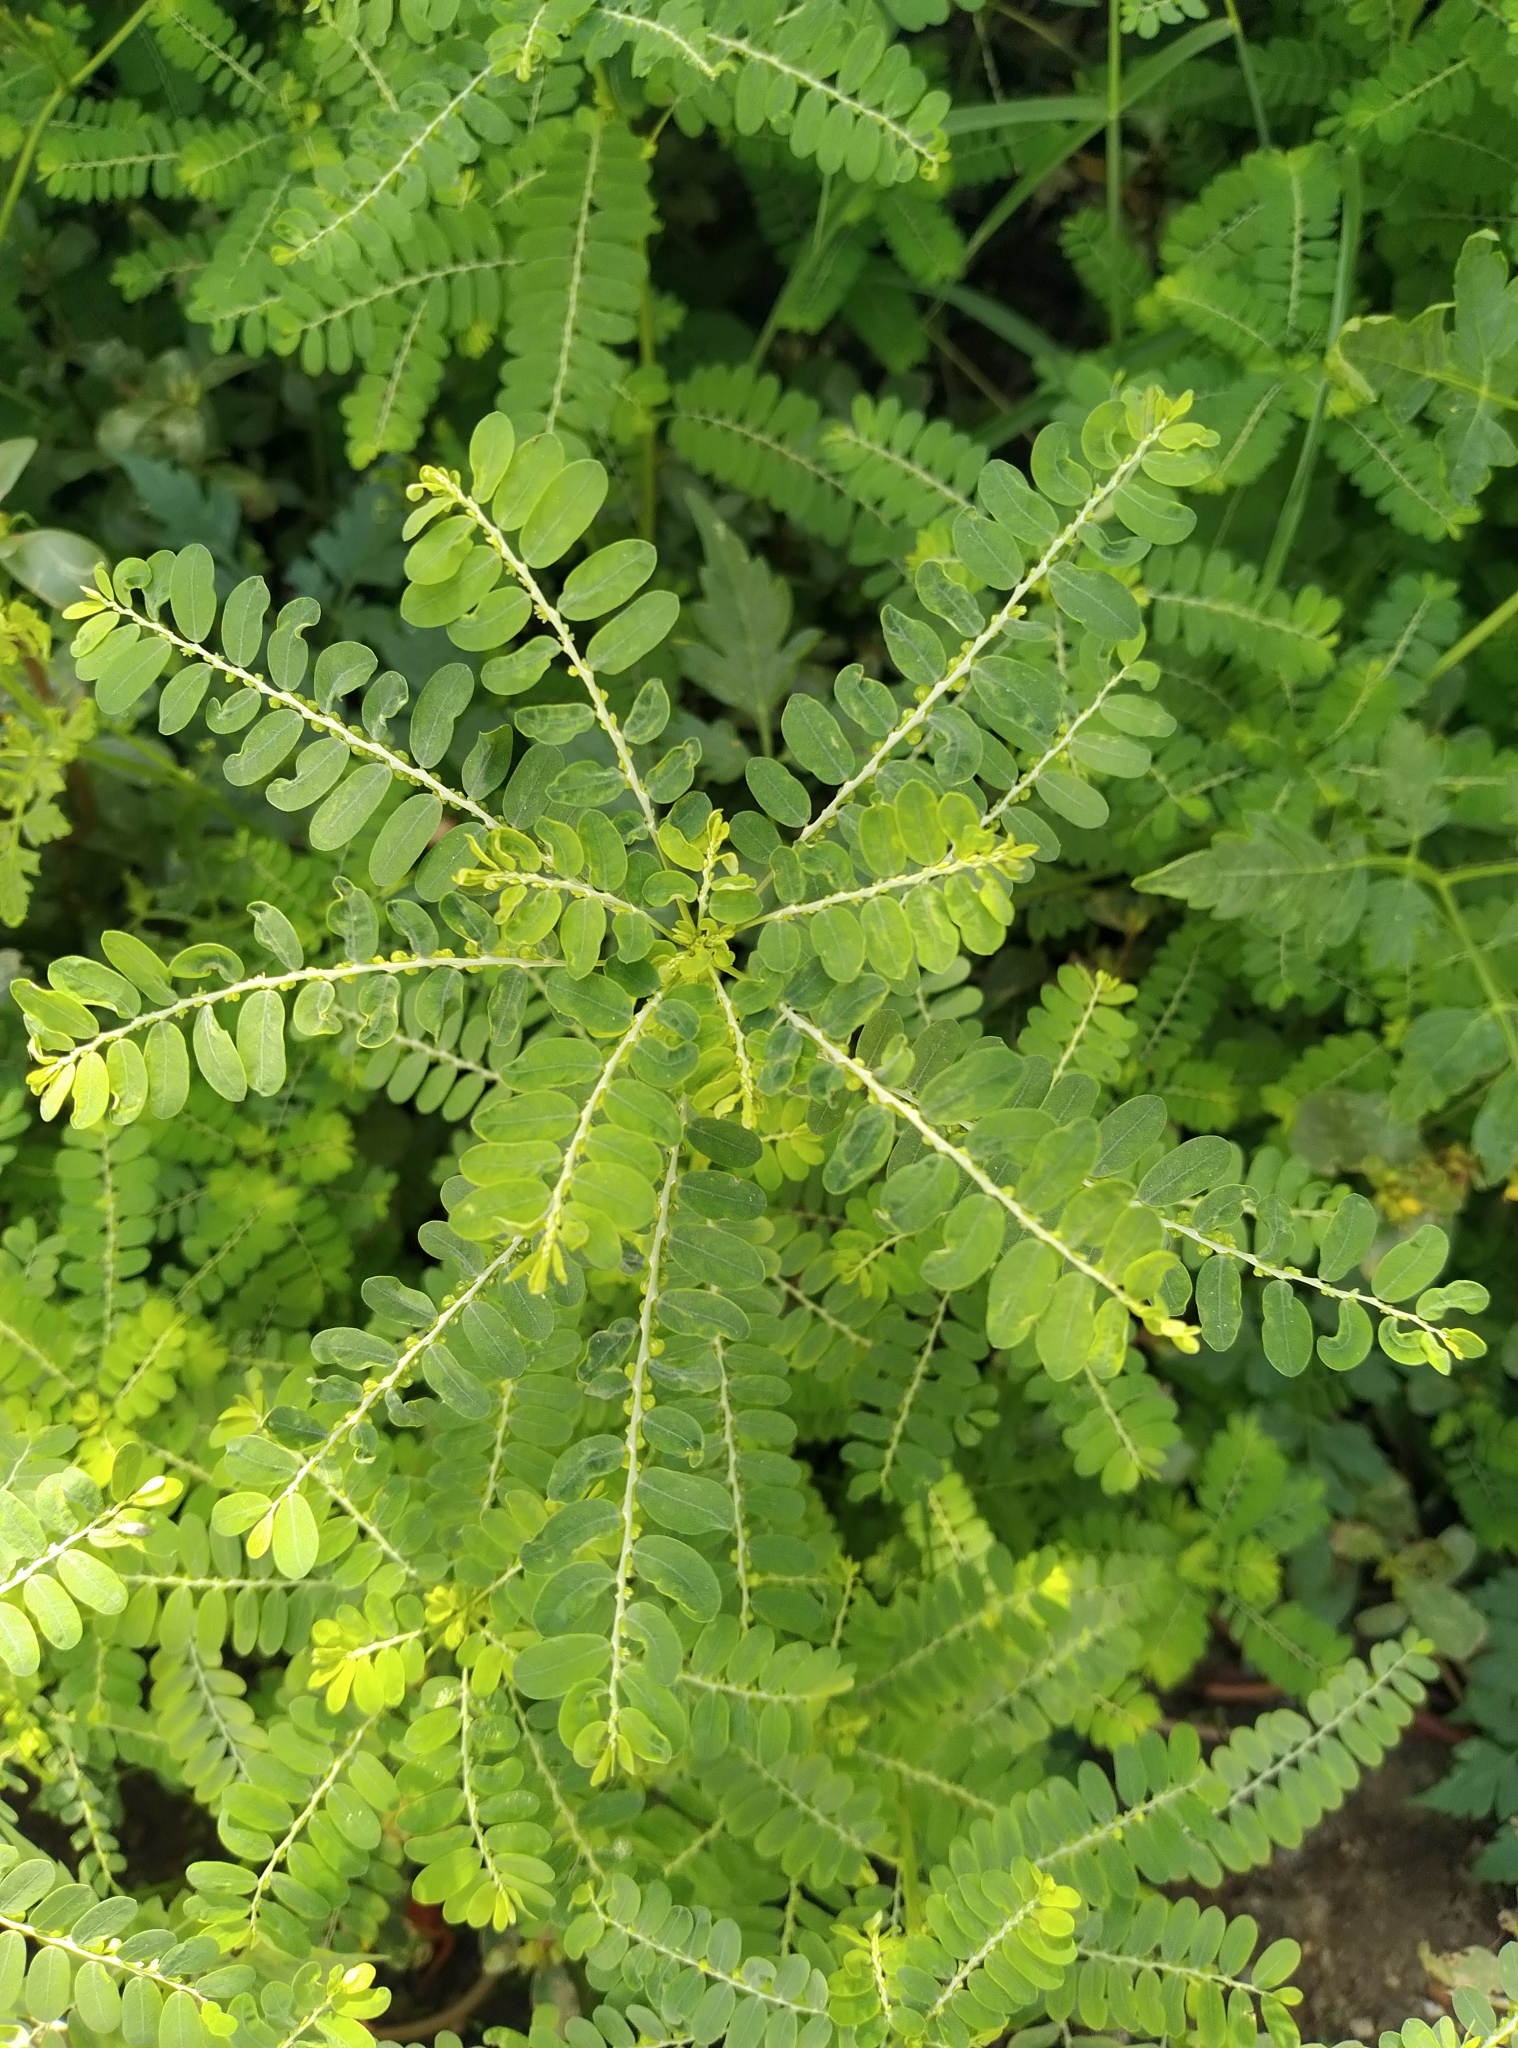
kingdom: Plantae
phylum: Tracheophyta
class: Magnoliopsida
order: Malpighiales
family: Phyllanthaceae
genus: Phyllanthus
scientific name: Phyllanthus amarus
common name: Carry me seed
